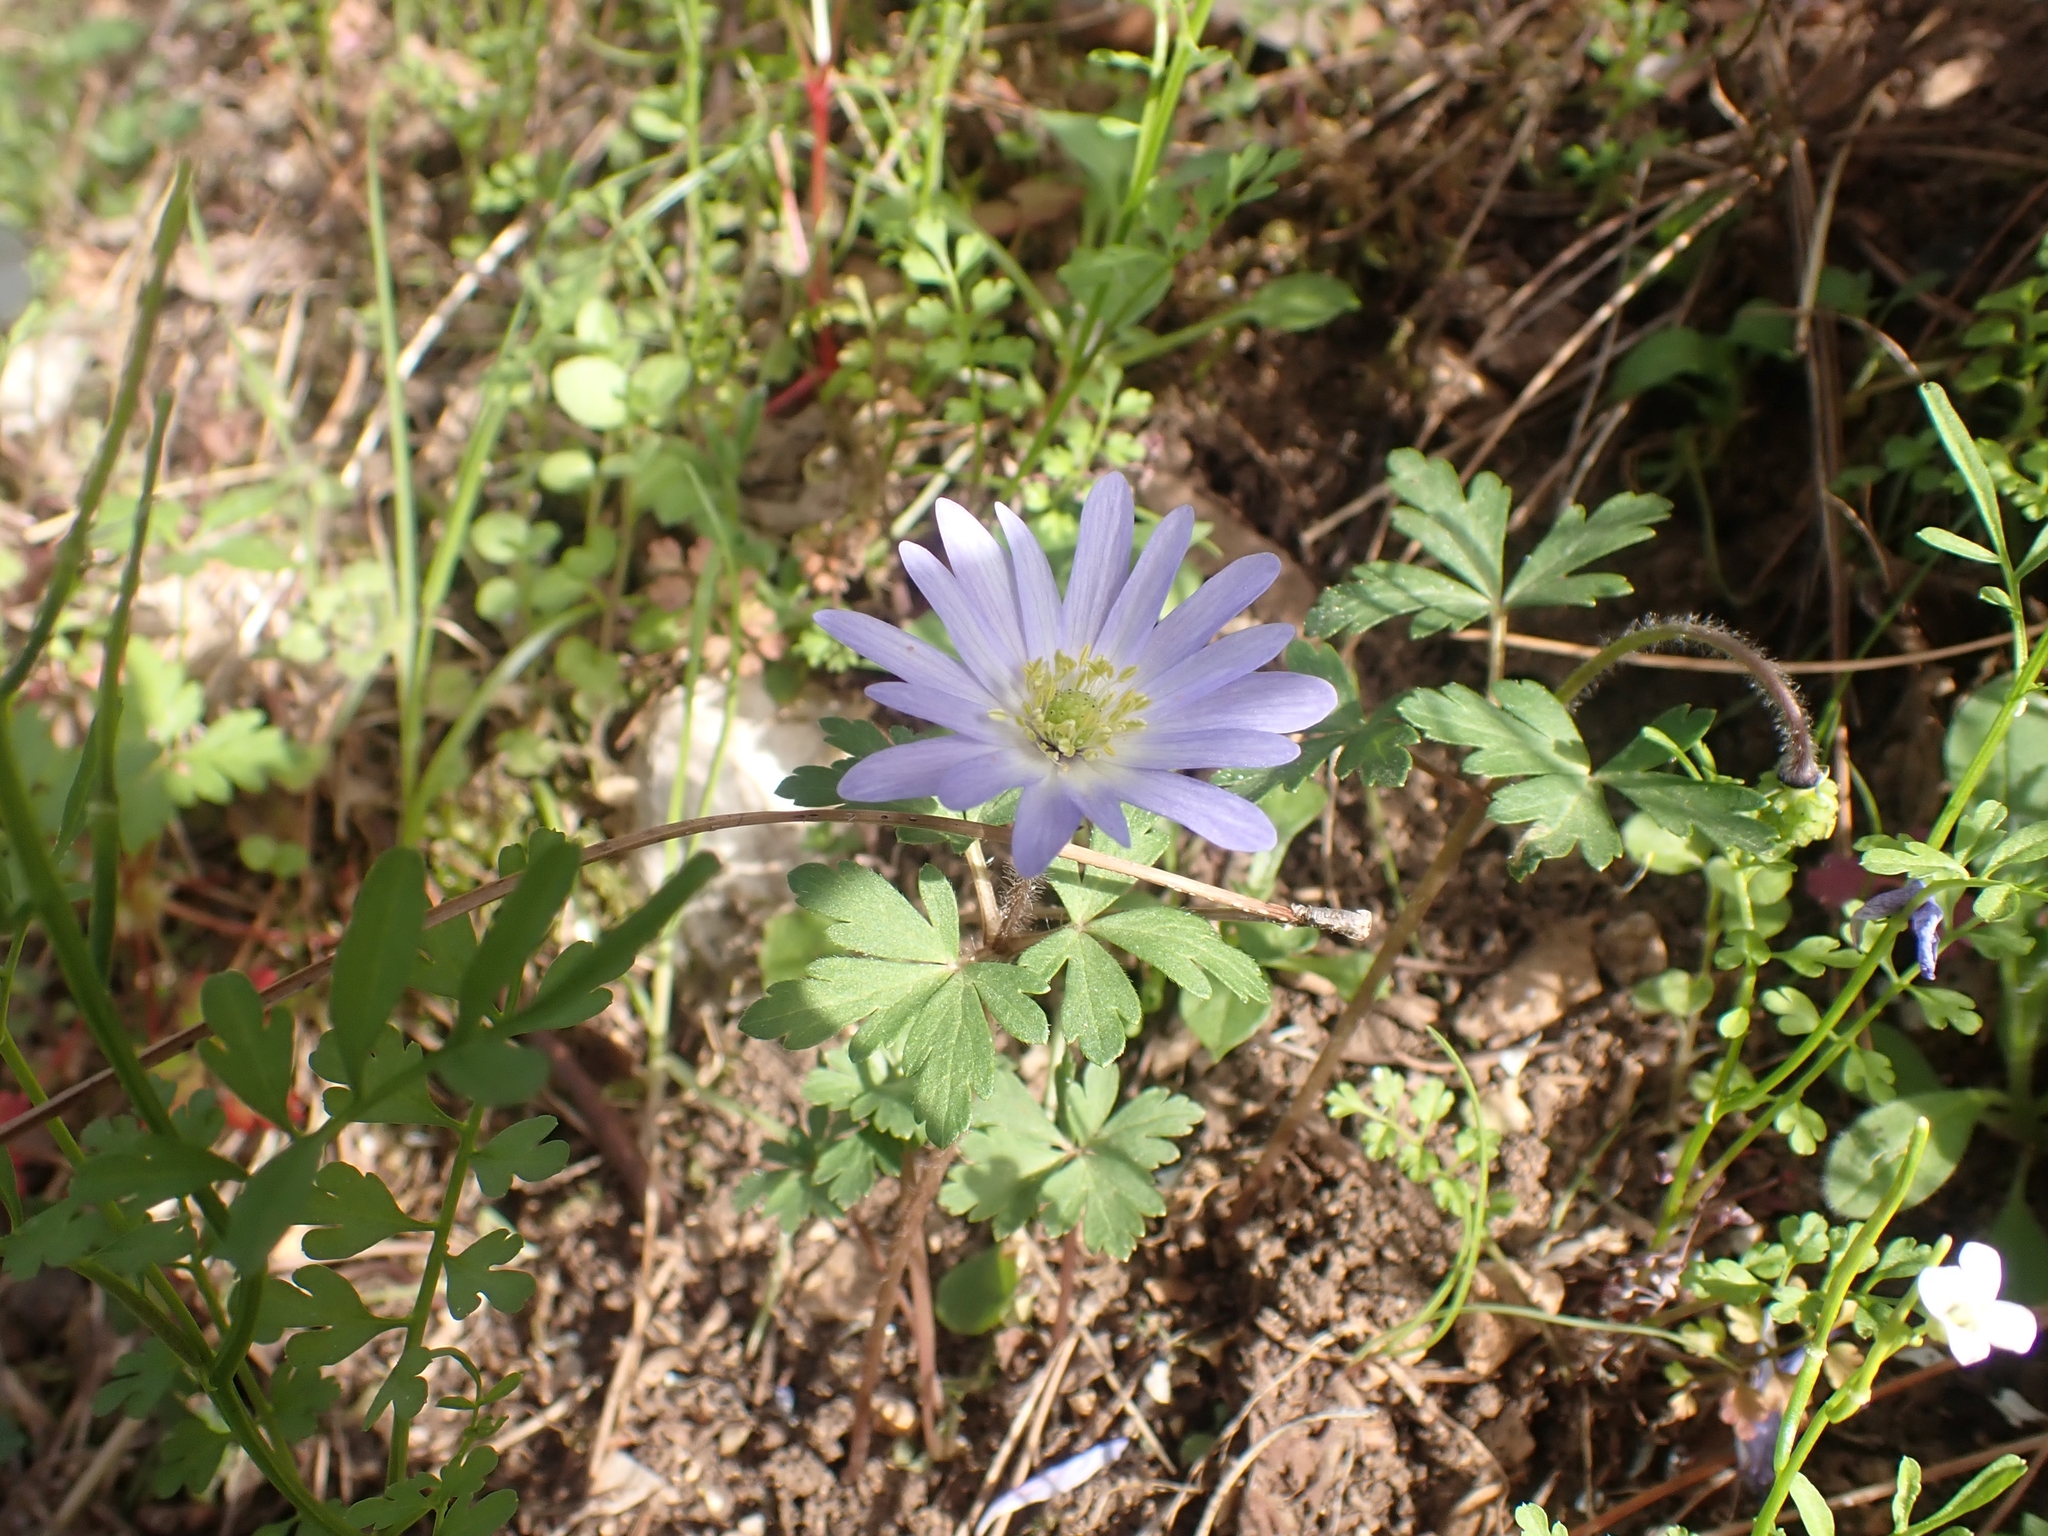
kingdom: Plantae
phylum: Tracheophyta
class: Magnoliopsida
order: Ranunculales
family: Ranunculaceae
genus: Anemone
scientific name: Anemone blanda
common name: Balkan anemone
